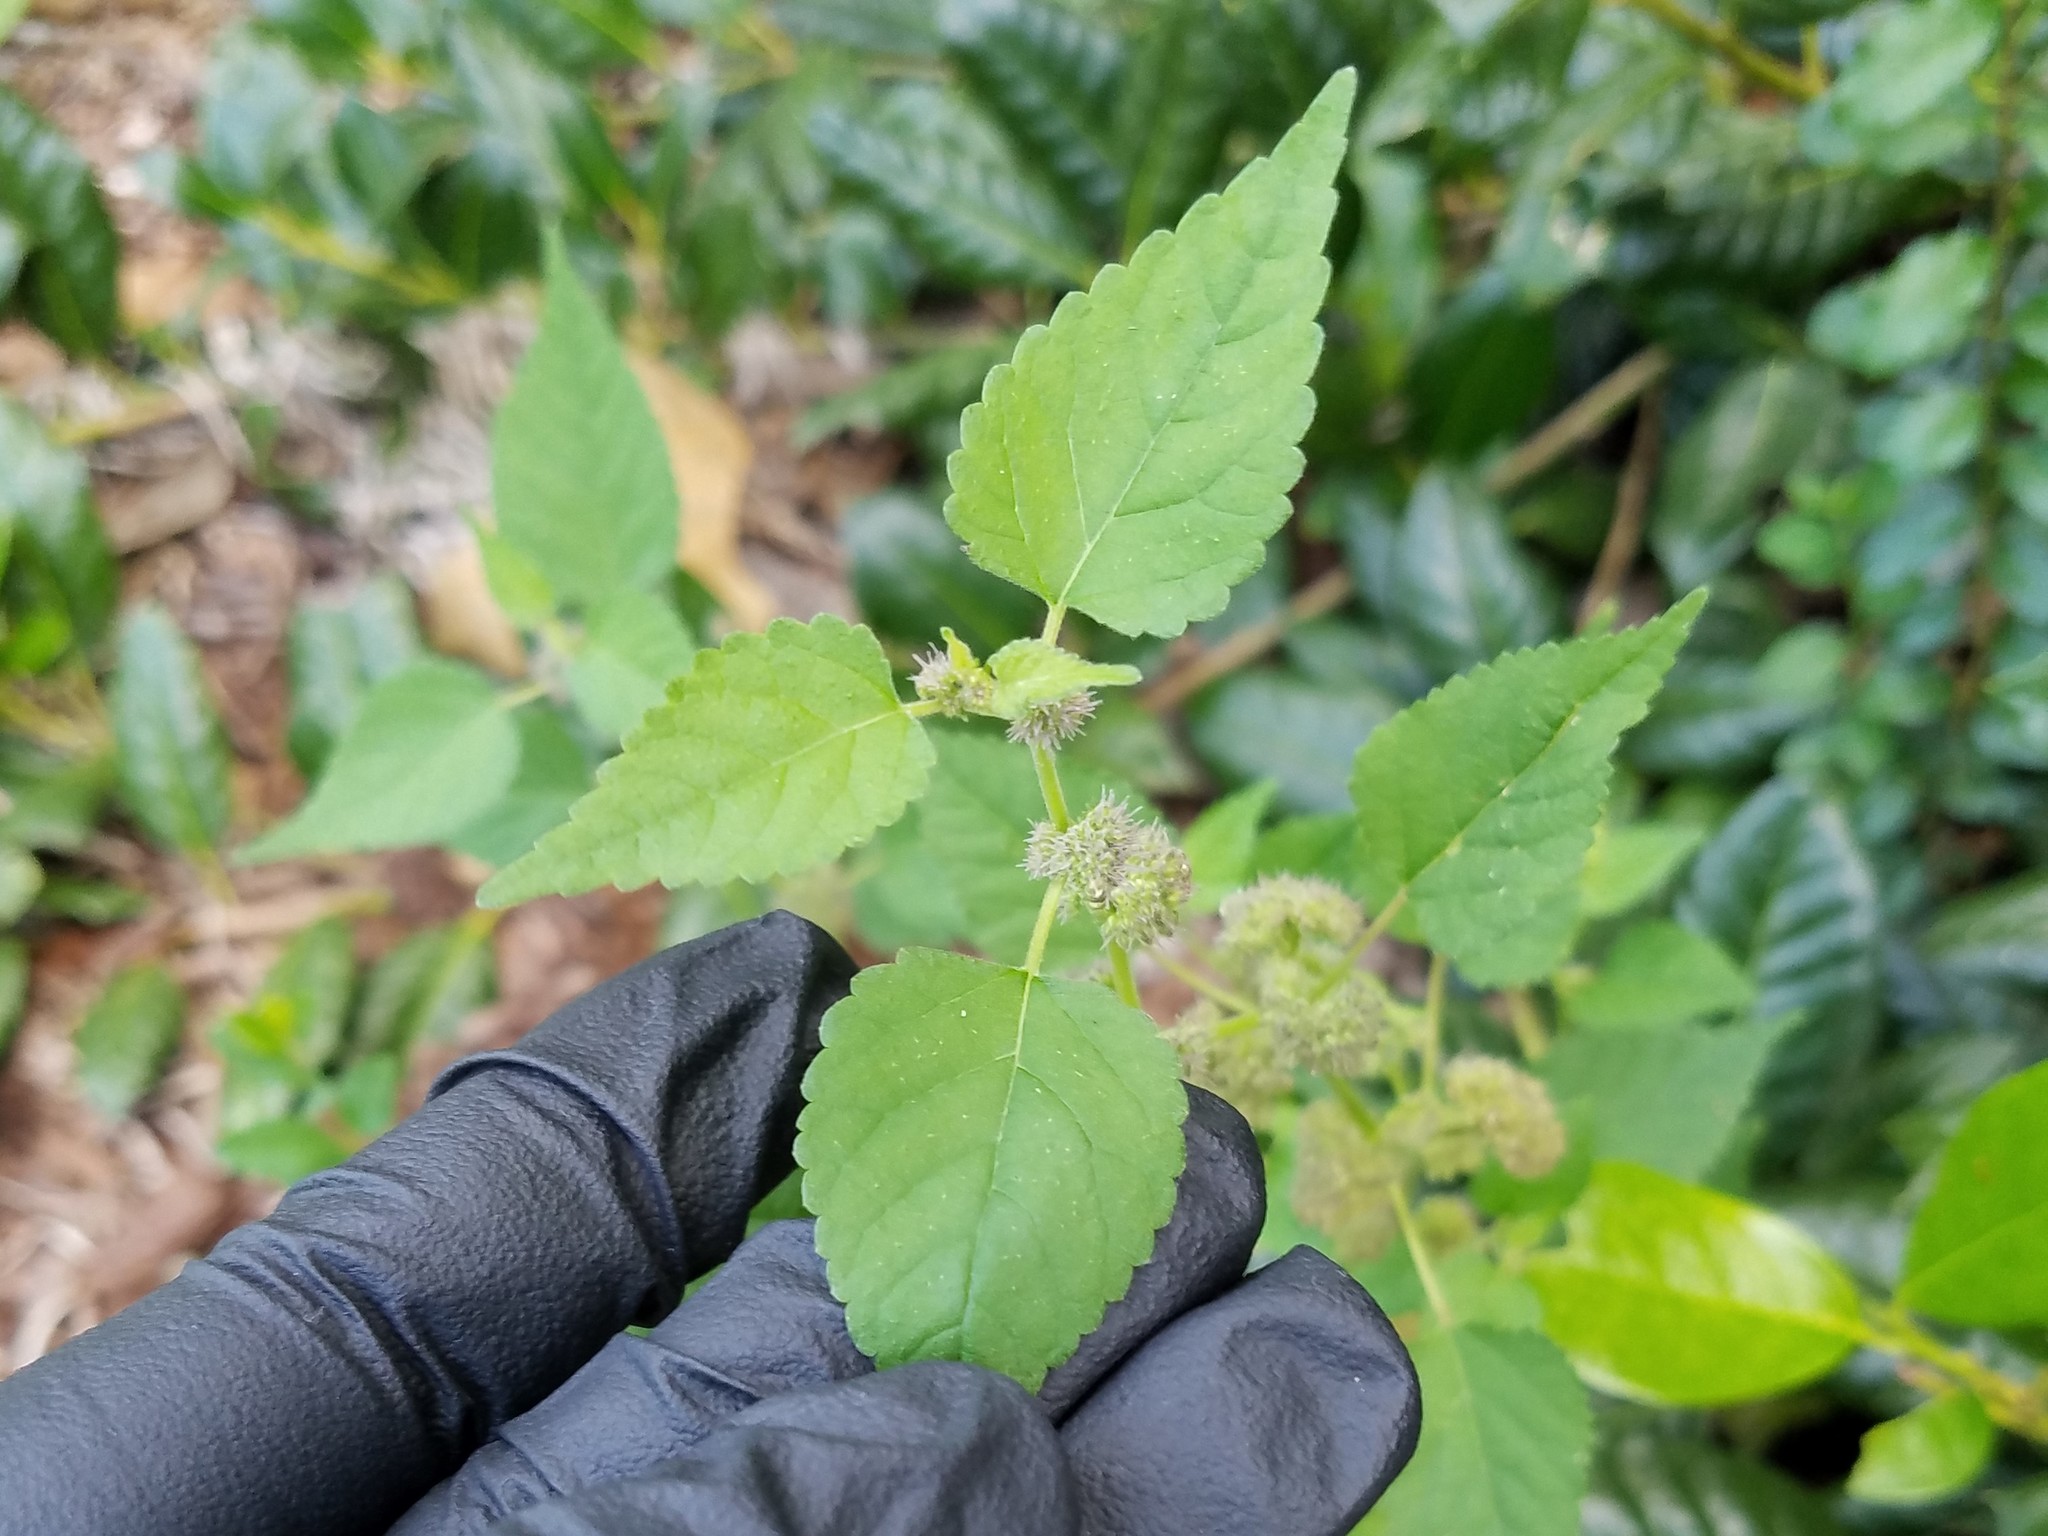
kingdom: Plantae
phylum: Tracheophyta
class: Magnoliopsida
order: Rosales
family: Moraceae
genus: Fatoua
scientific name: Fatoua villosa
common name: Hairy crabweed
